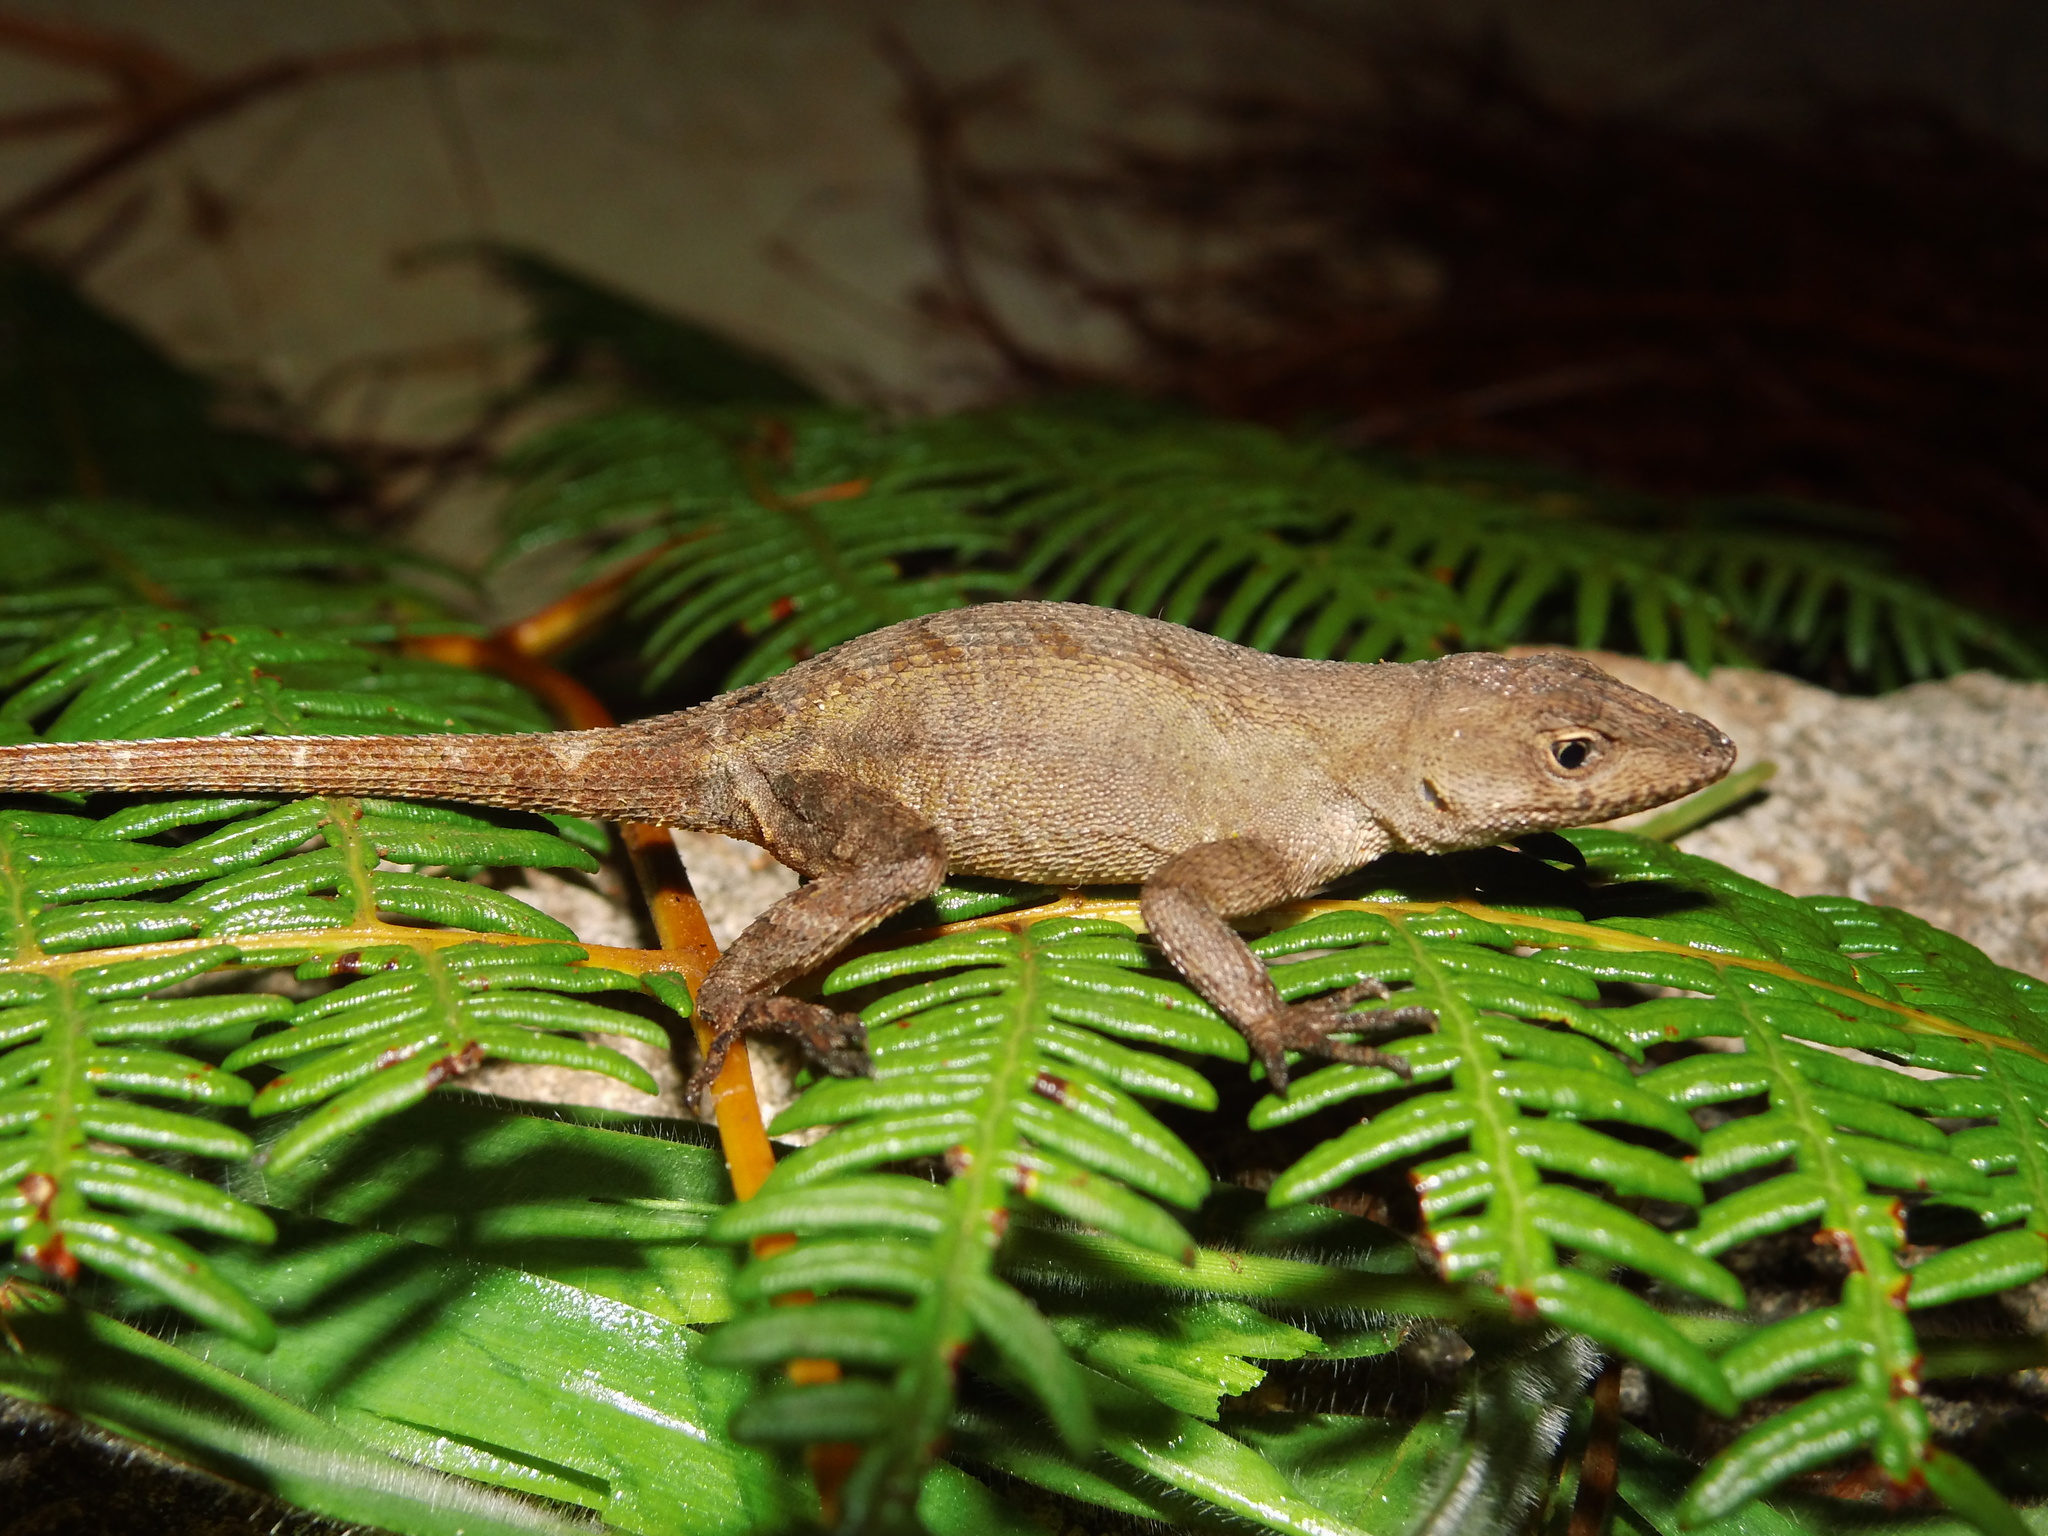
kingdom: Animalia
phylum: Chordata
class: Squamata
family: Dactyloidae
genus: Anolis
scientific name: Anolis mccraniei
